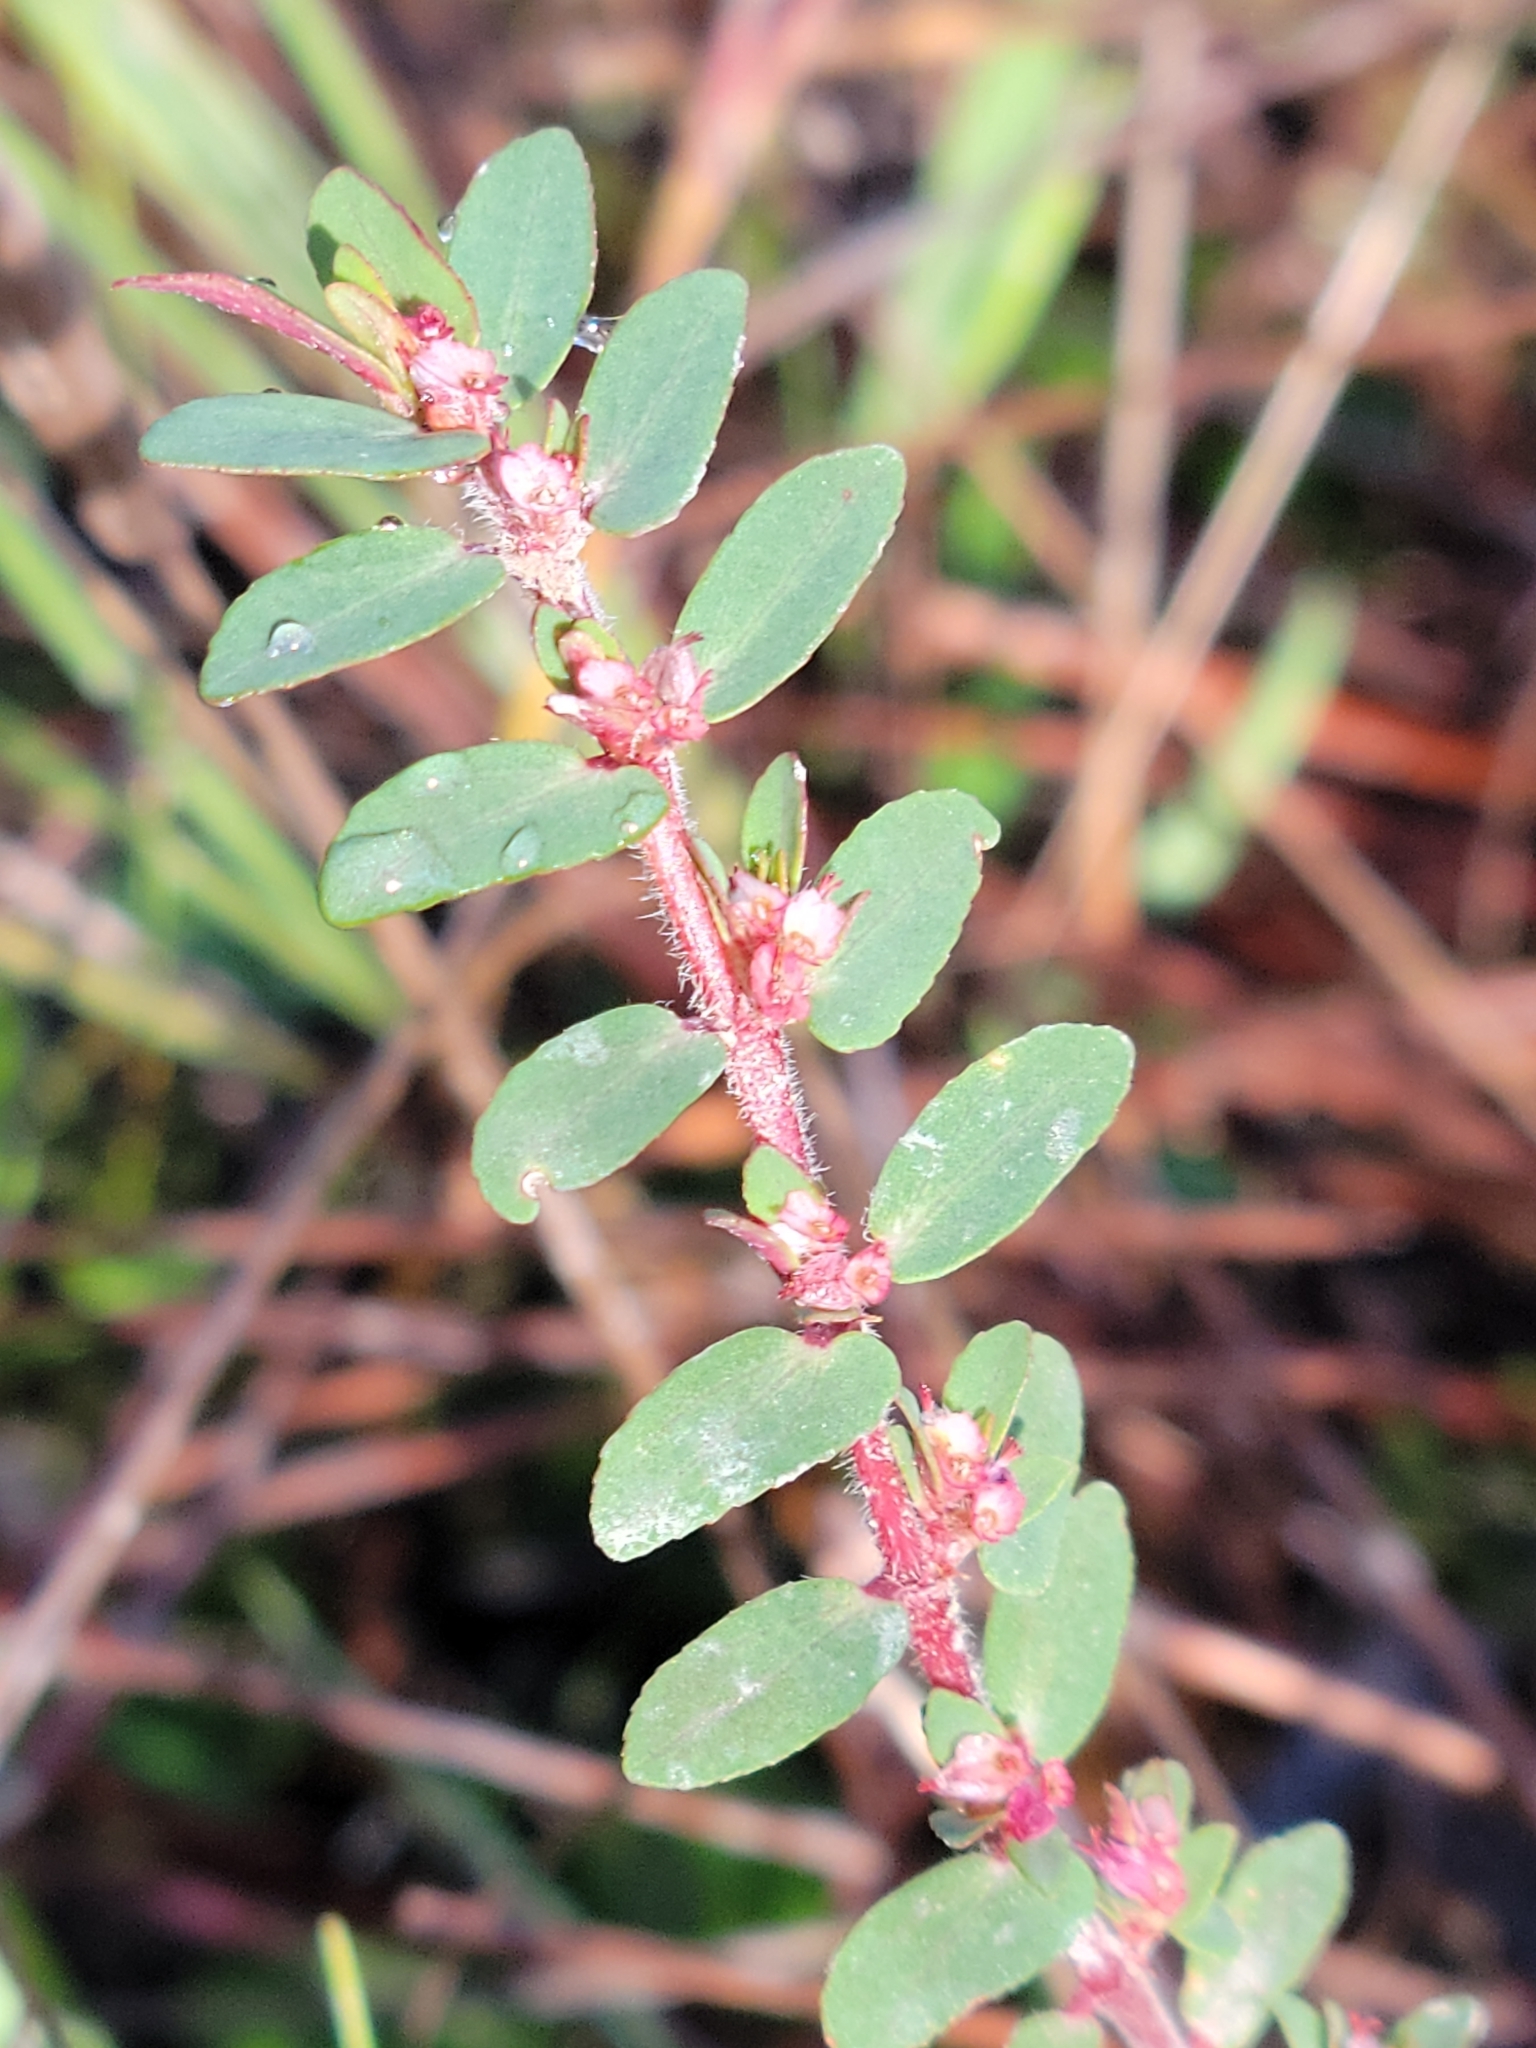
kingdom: Plantae
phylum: Tracheophyta
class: Magnoliopsida
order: Malpighiales
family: Euphorbiaceae
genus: Euphorbia
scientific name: Euphorbia conferta
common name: Everglade key sandmat
